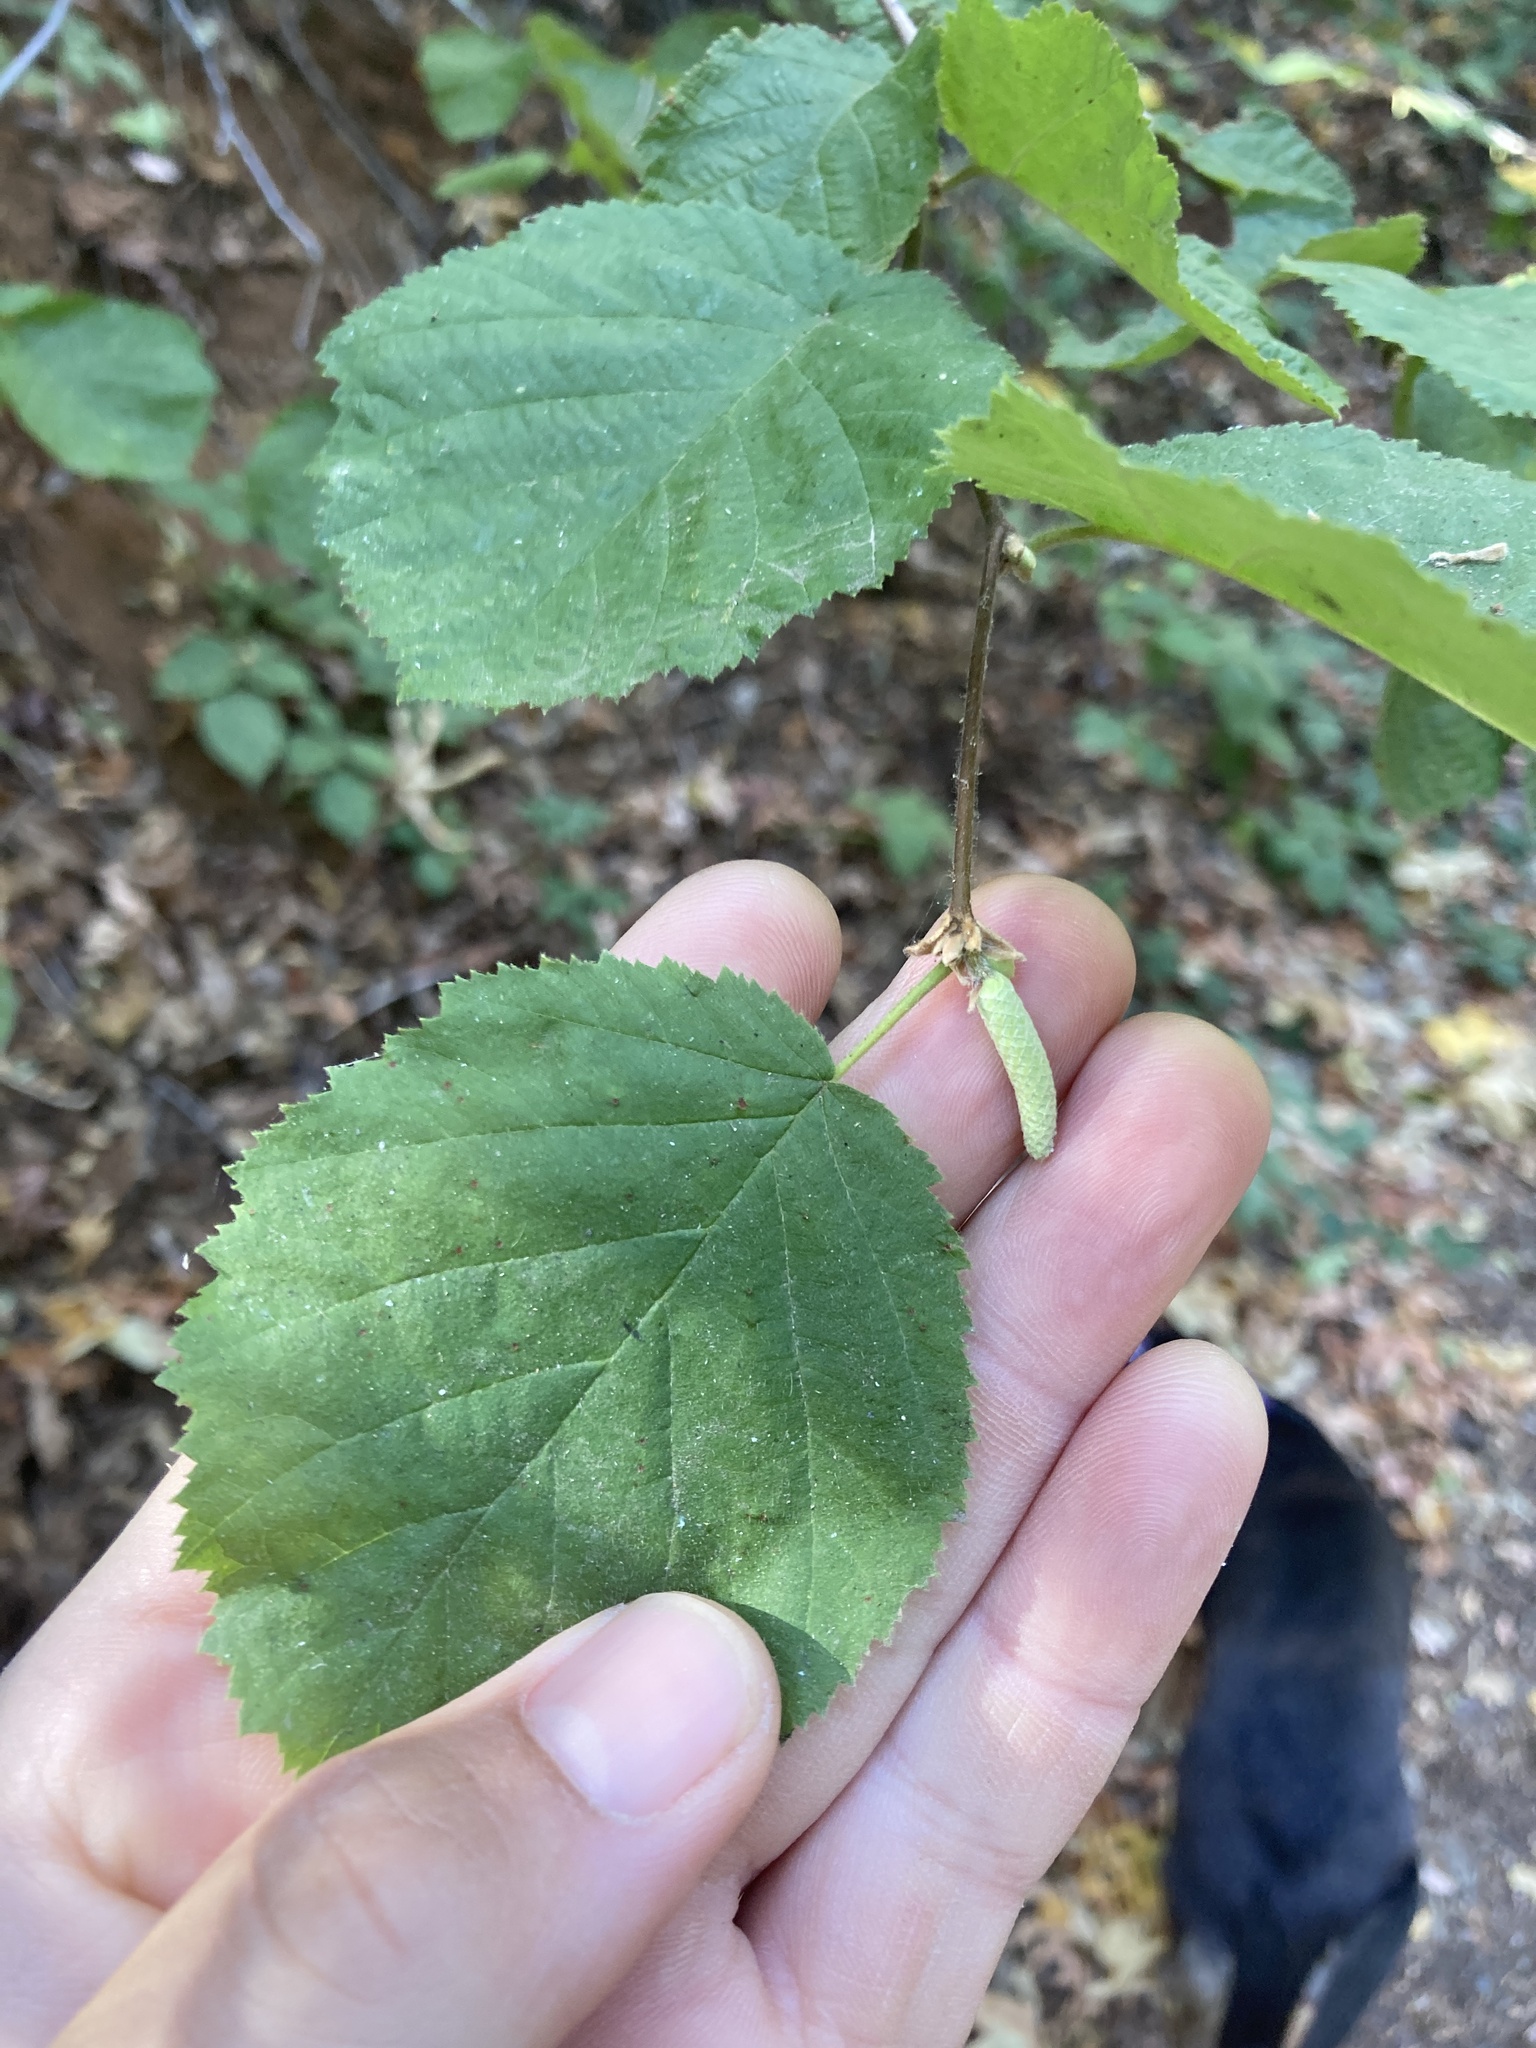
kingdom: Plantae
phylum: Tracheophyta
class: Magnoliopsida
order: Fagales
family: Betulaceae
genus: Corylus
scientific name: Corylus cornuta
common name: Beaked hazel
